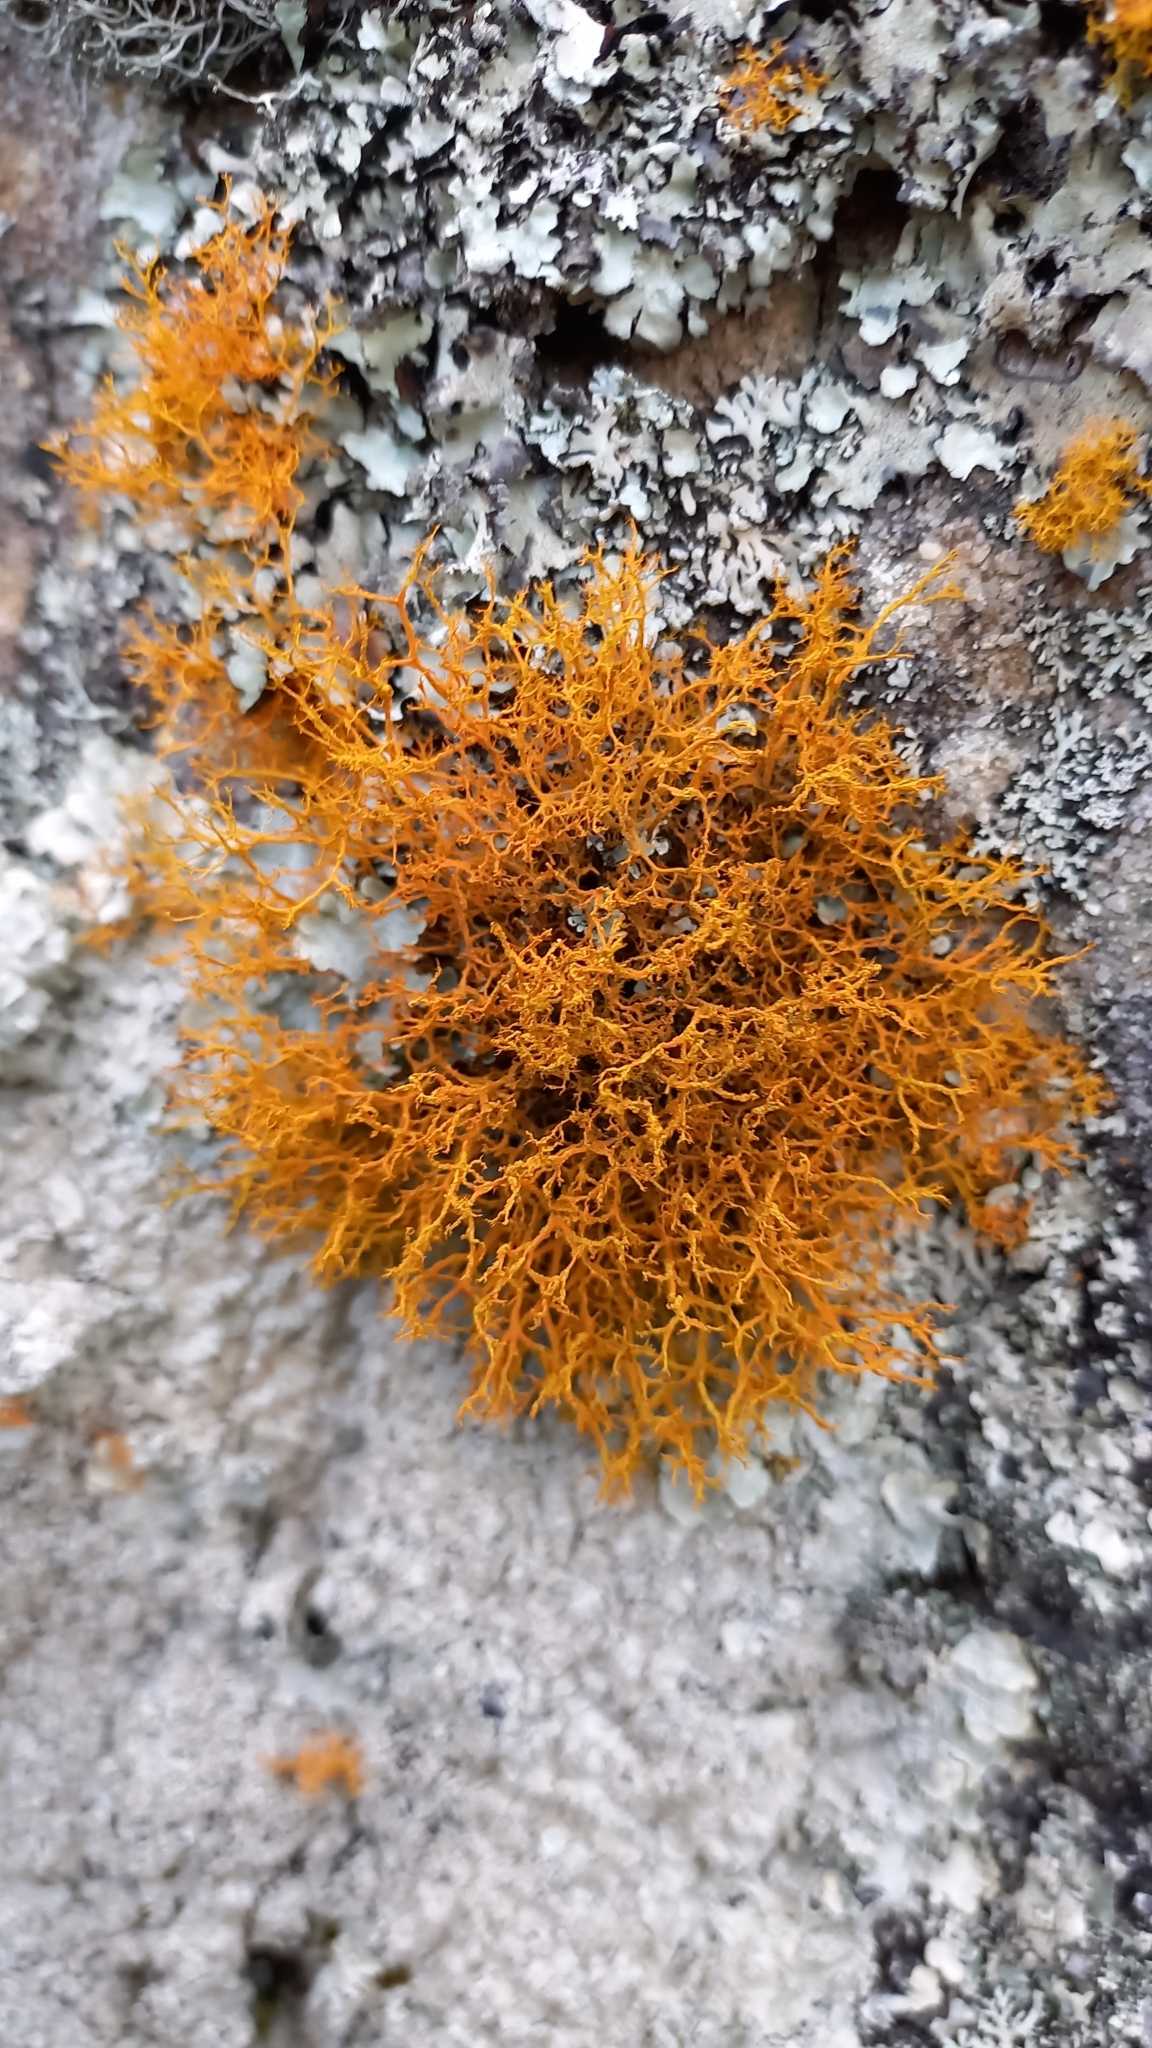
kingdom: Fungi
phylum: Ascomycota
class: Lecanoromycetes
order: Teloschistales
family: Teloschistaceae
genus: Teloschistes
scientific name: Teloschistes flavicans
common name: Golden hair-lichen
